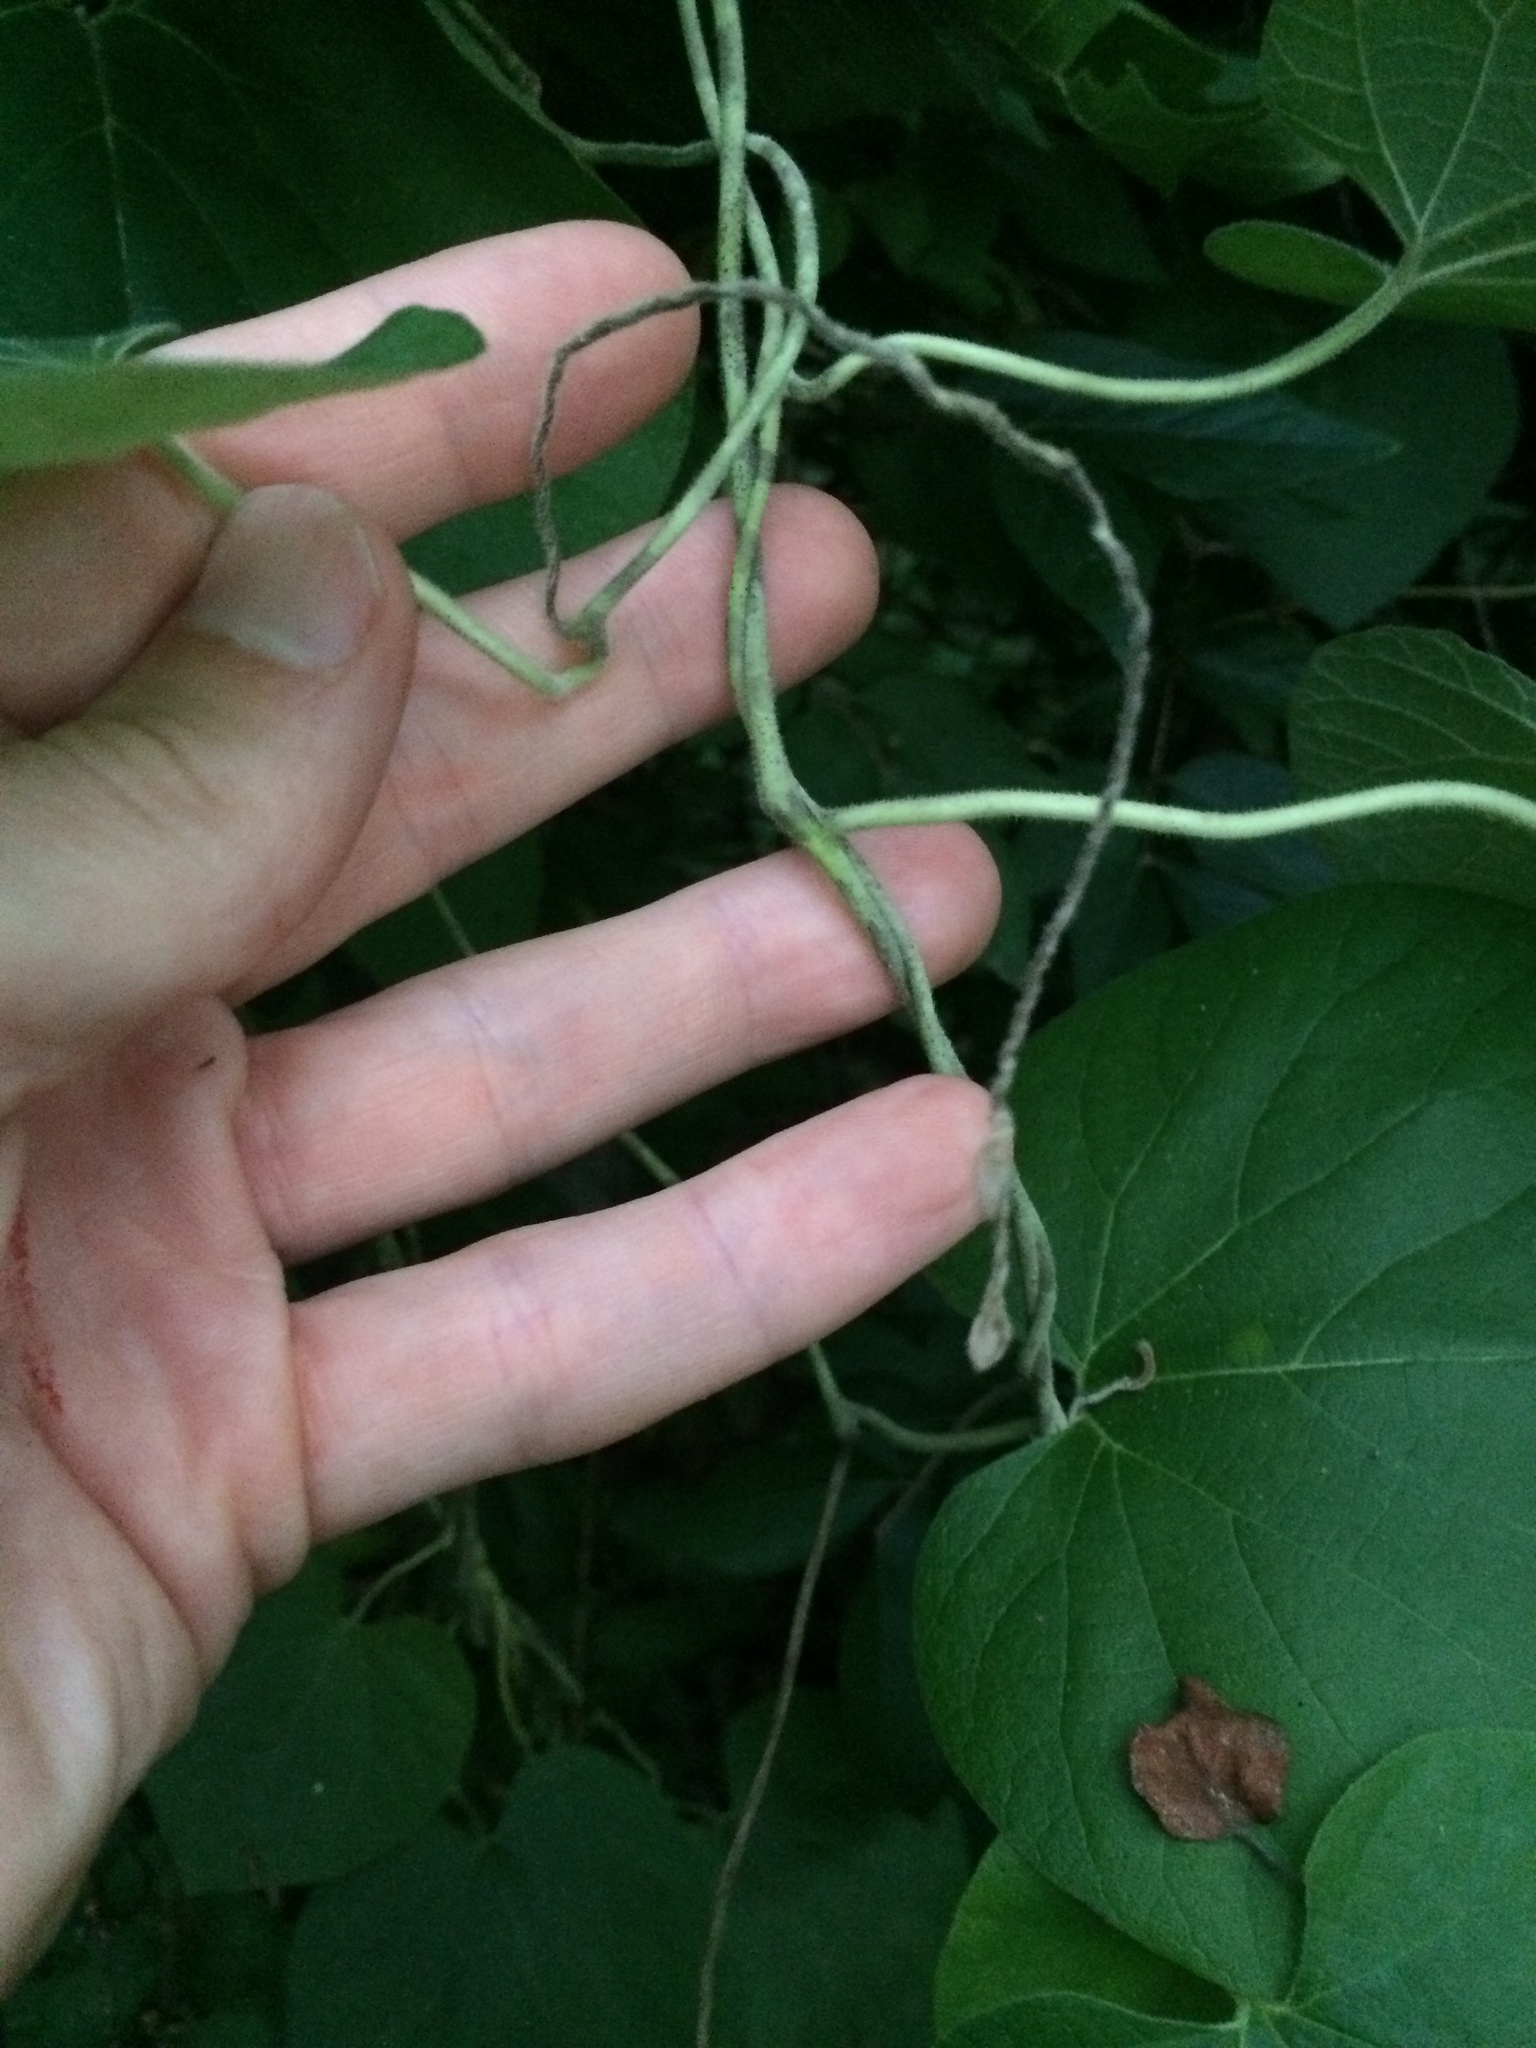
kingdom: Plantae
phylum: Tracheophyta
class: Magnoliopsida
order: Piperales
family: Aristolochiaceae
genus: Isotrema
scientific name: Isotrema tomentosum
